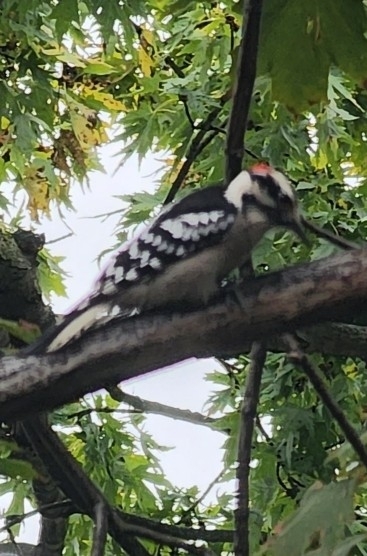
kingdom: Animalia
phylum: Chordata
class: Aves
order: Piciformes
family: Picidae
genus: Leuconotopicus
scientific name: Leuconotopicus villosus
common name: Hairy woodpecker
